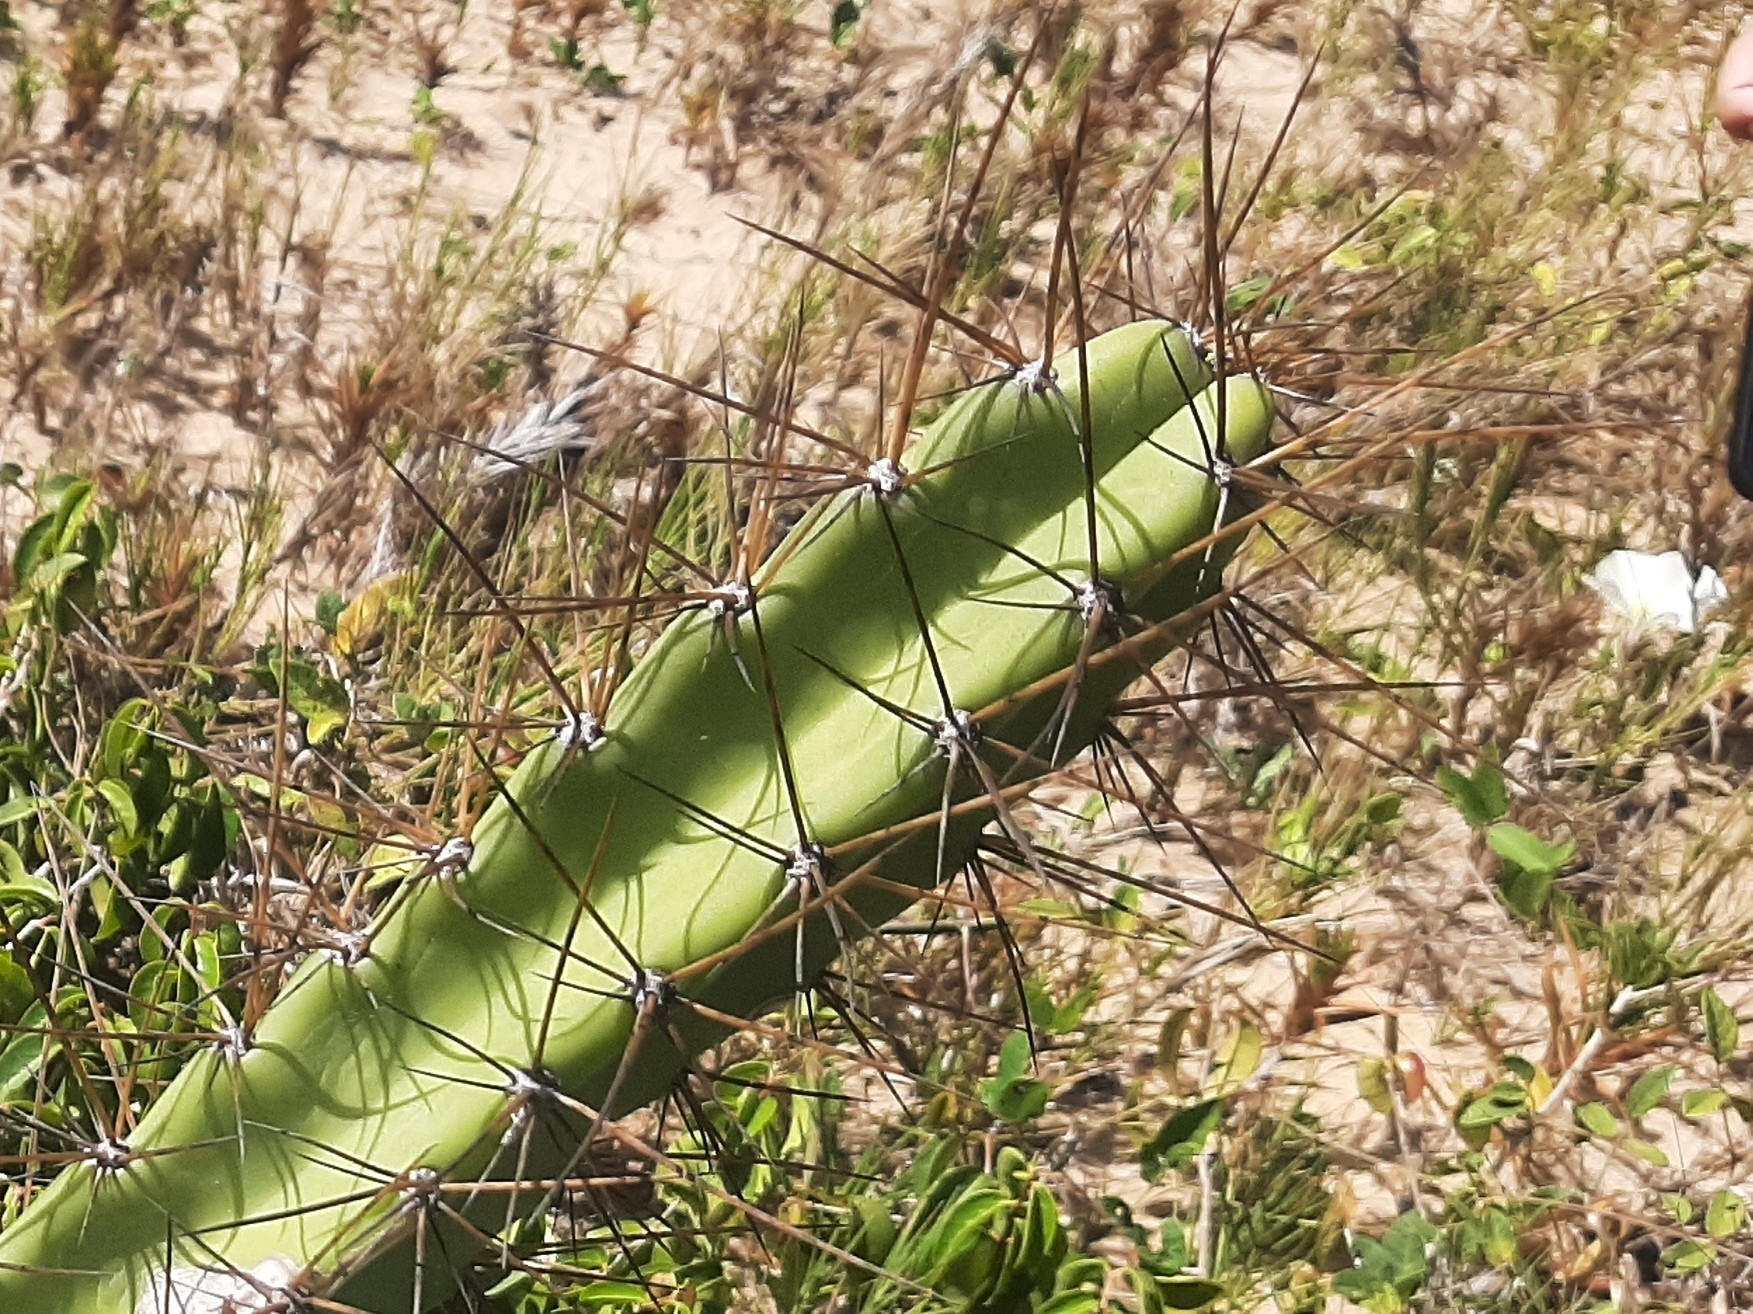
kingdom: Plantae
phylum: Tracheophyta
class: Magnoliopsida
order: Caryophyllales
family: Cactaceae
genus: Cereus
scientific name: Cereus fernambucensis
